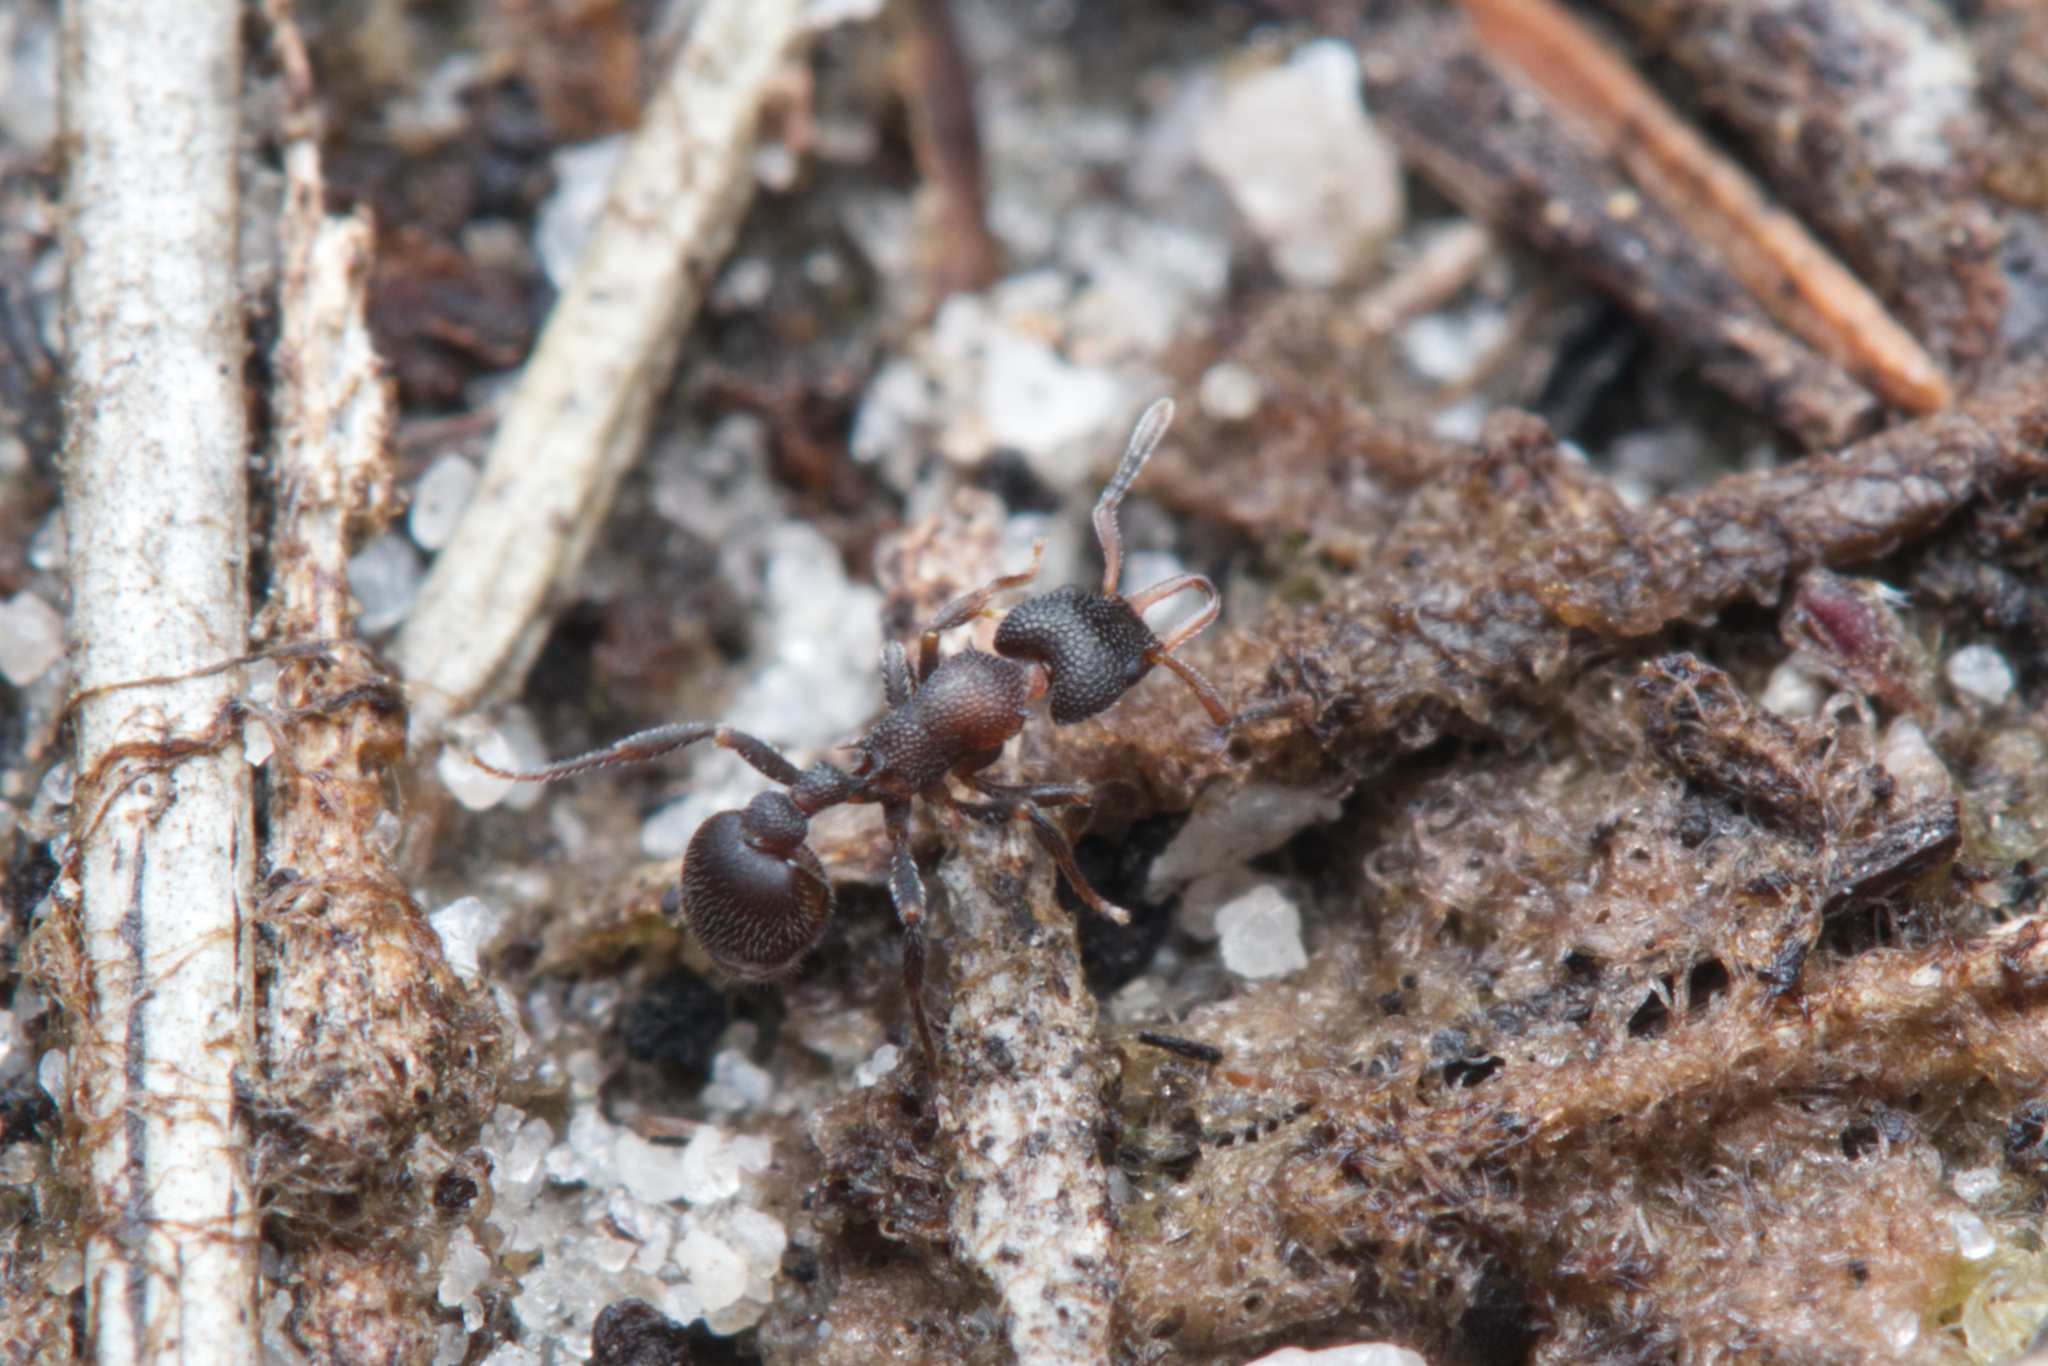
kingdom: Animalia
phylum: Arthropoda
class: Insecta
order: Hymenoptera
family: Formicidae
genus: Epopostruma
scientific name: Epopostruma quadrispinosa
